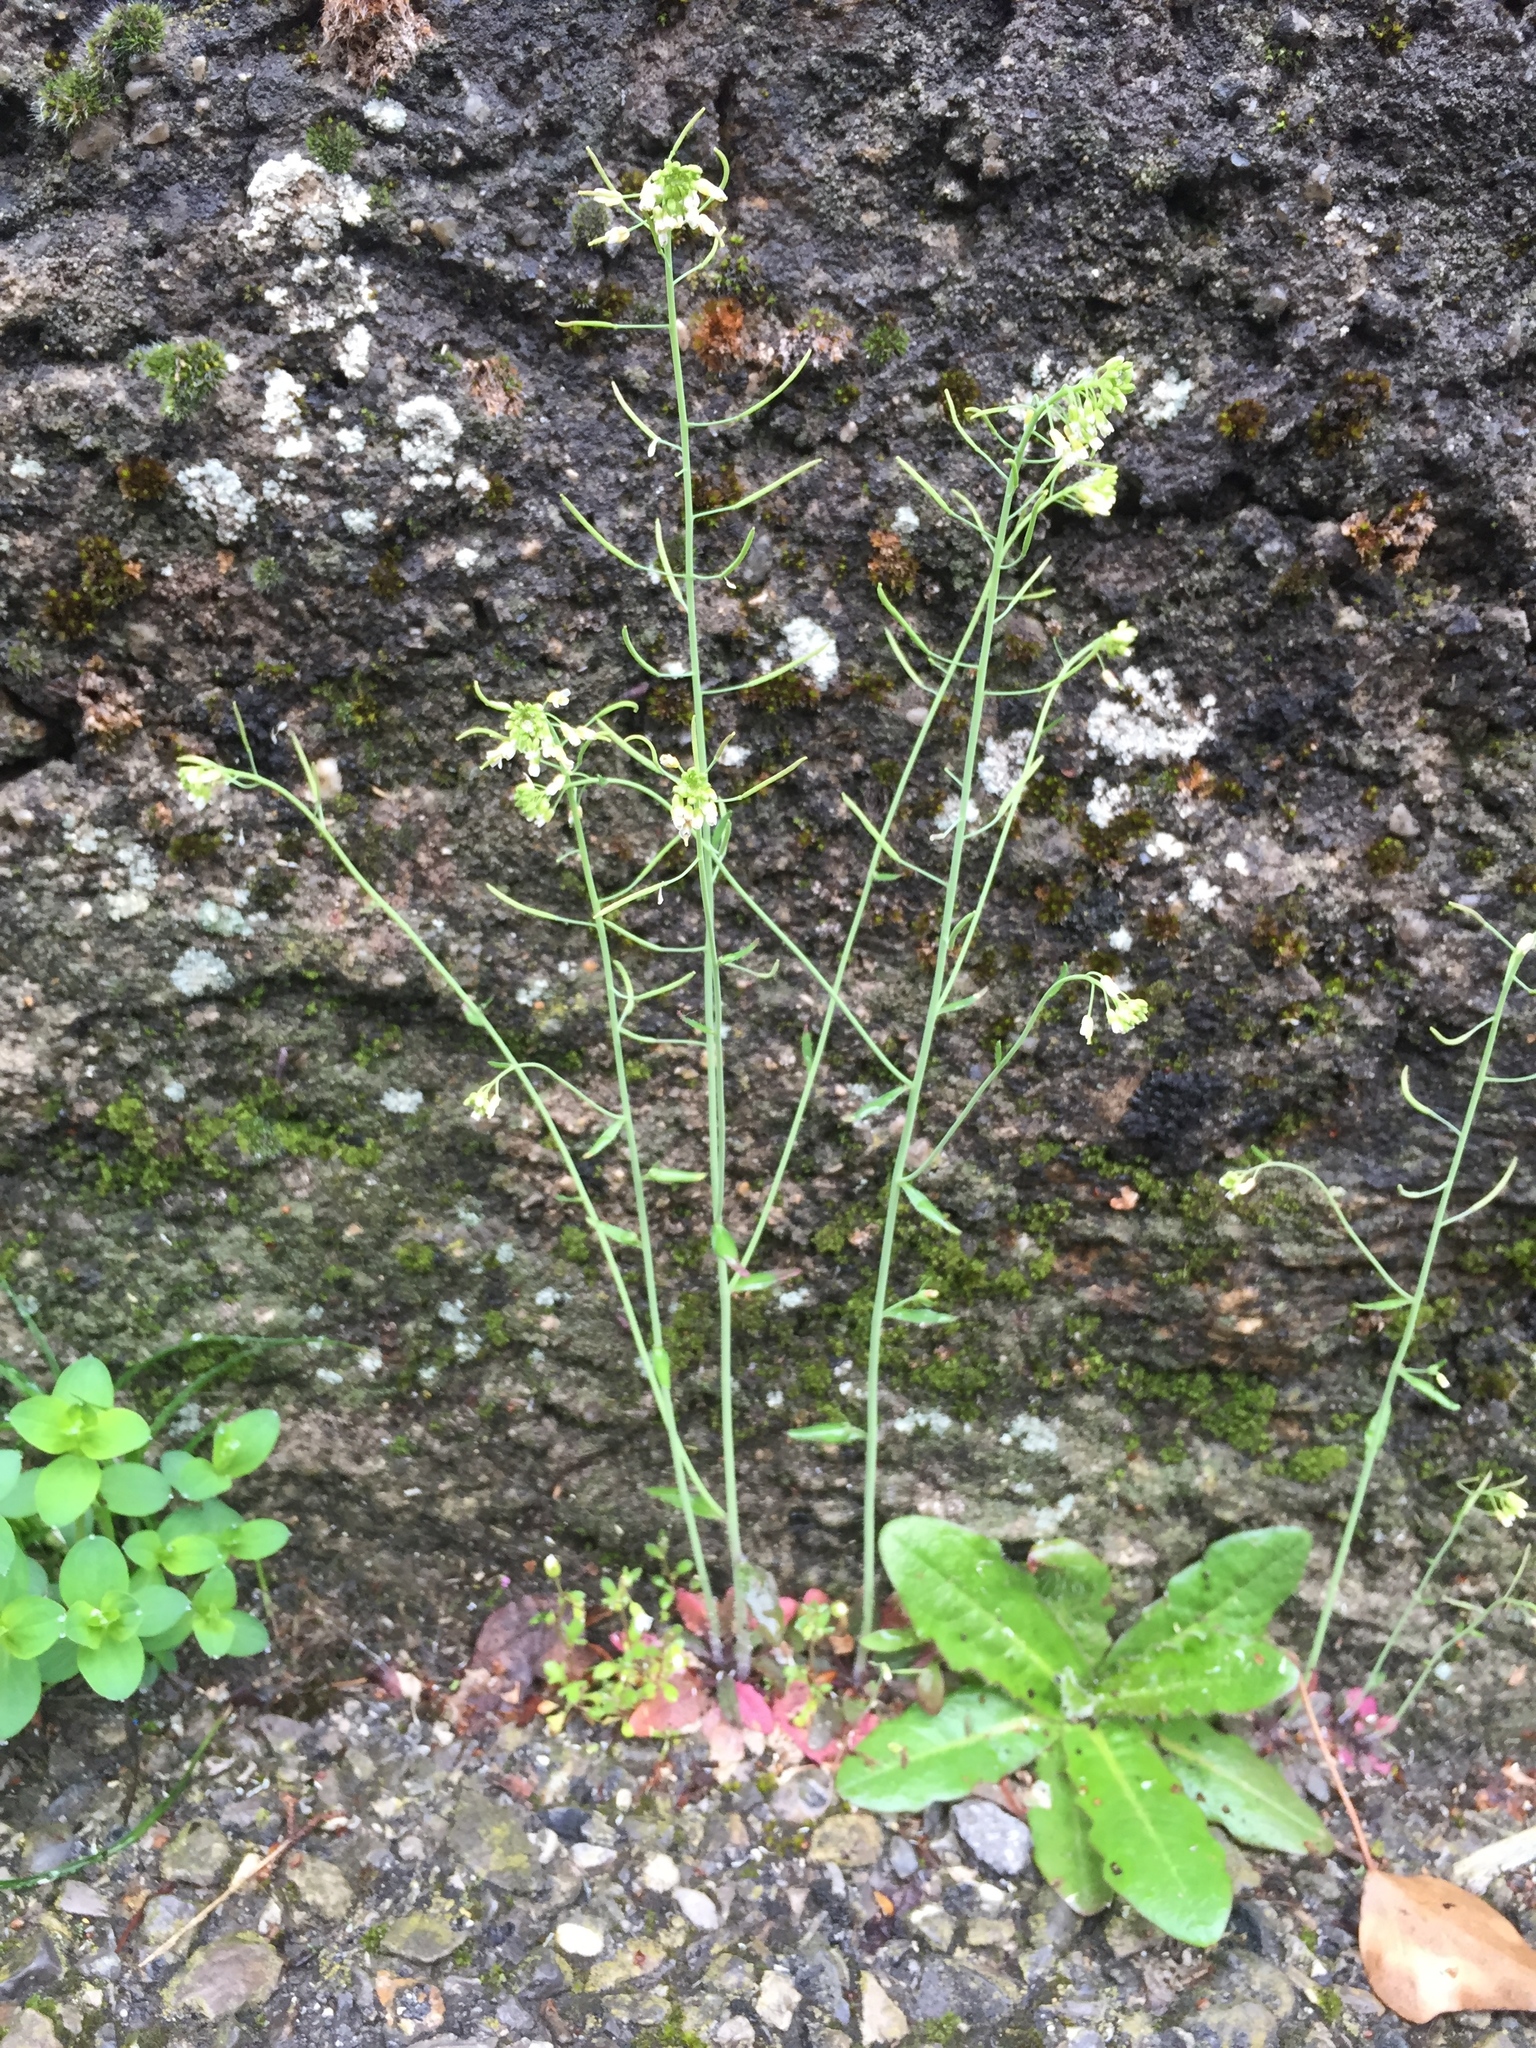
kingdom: Plantae
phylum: Tracheophyta
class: Magnoliopsida
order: Brassicales
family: Brassicaceae
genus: Arabidopsis
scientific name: Arabidopsis thaliana
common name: Thale cress
